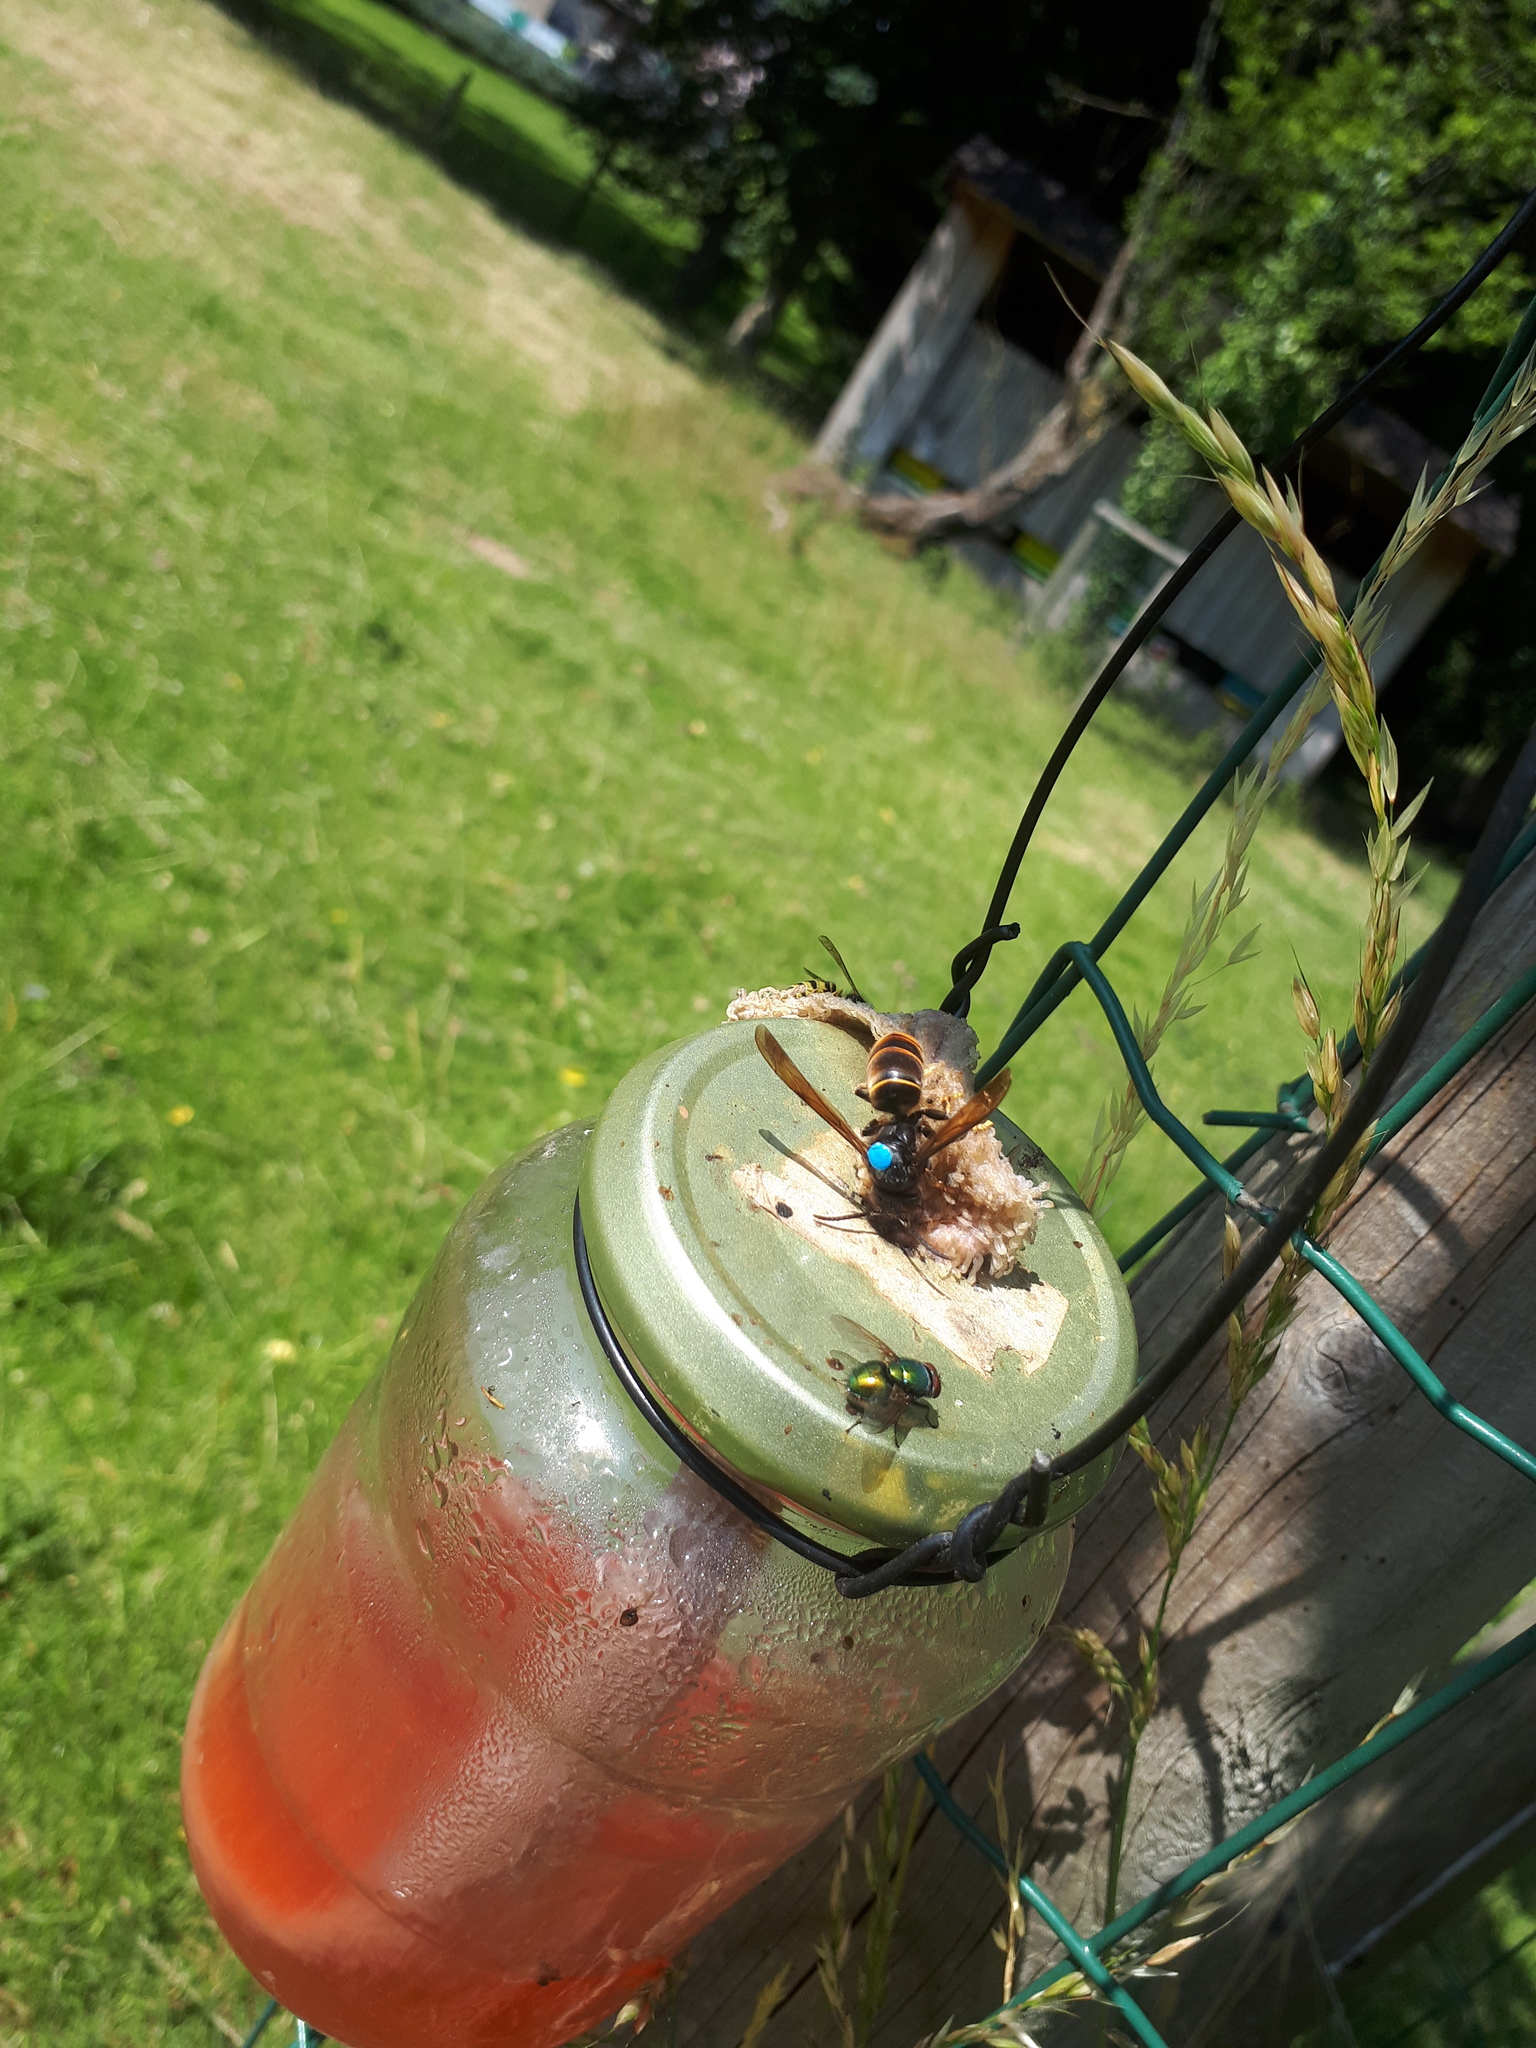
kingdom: Animalia
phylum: Arthropoda
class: Insecta
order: Hymenoptera
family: Vespidae
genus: Vespa
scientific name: Vespa velutina
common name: Asian hornet
